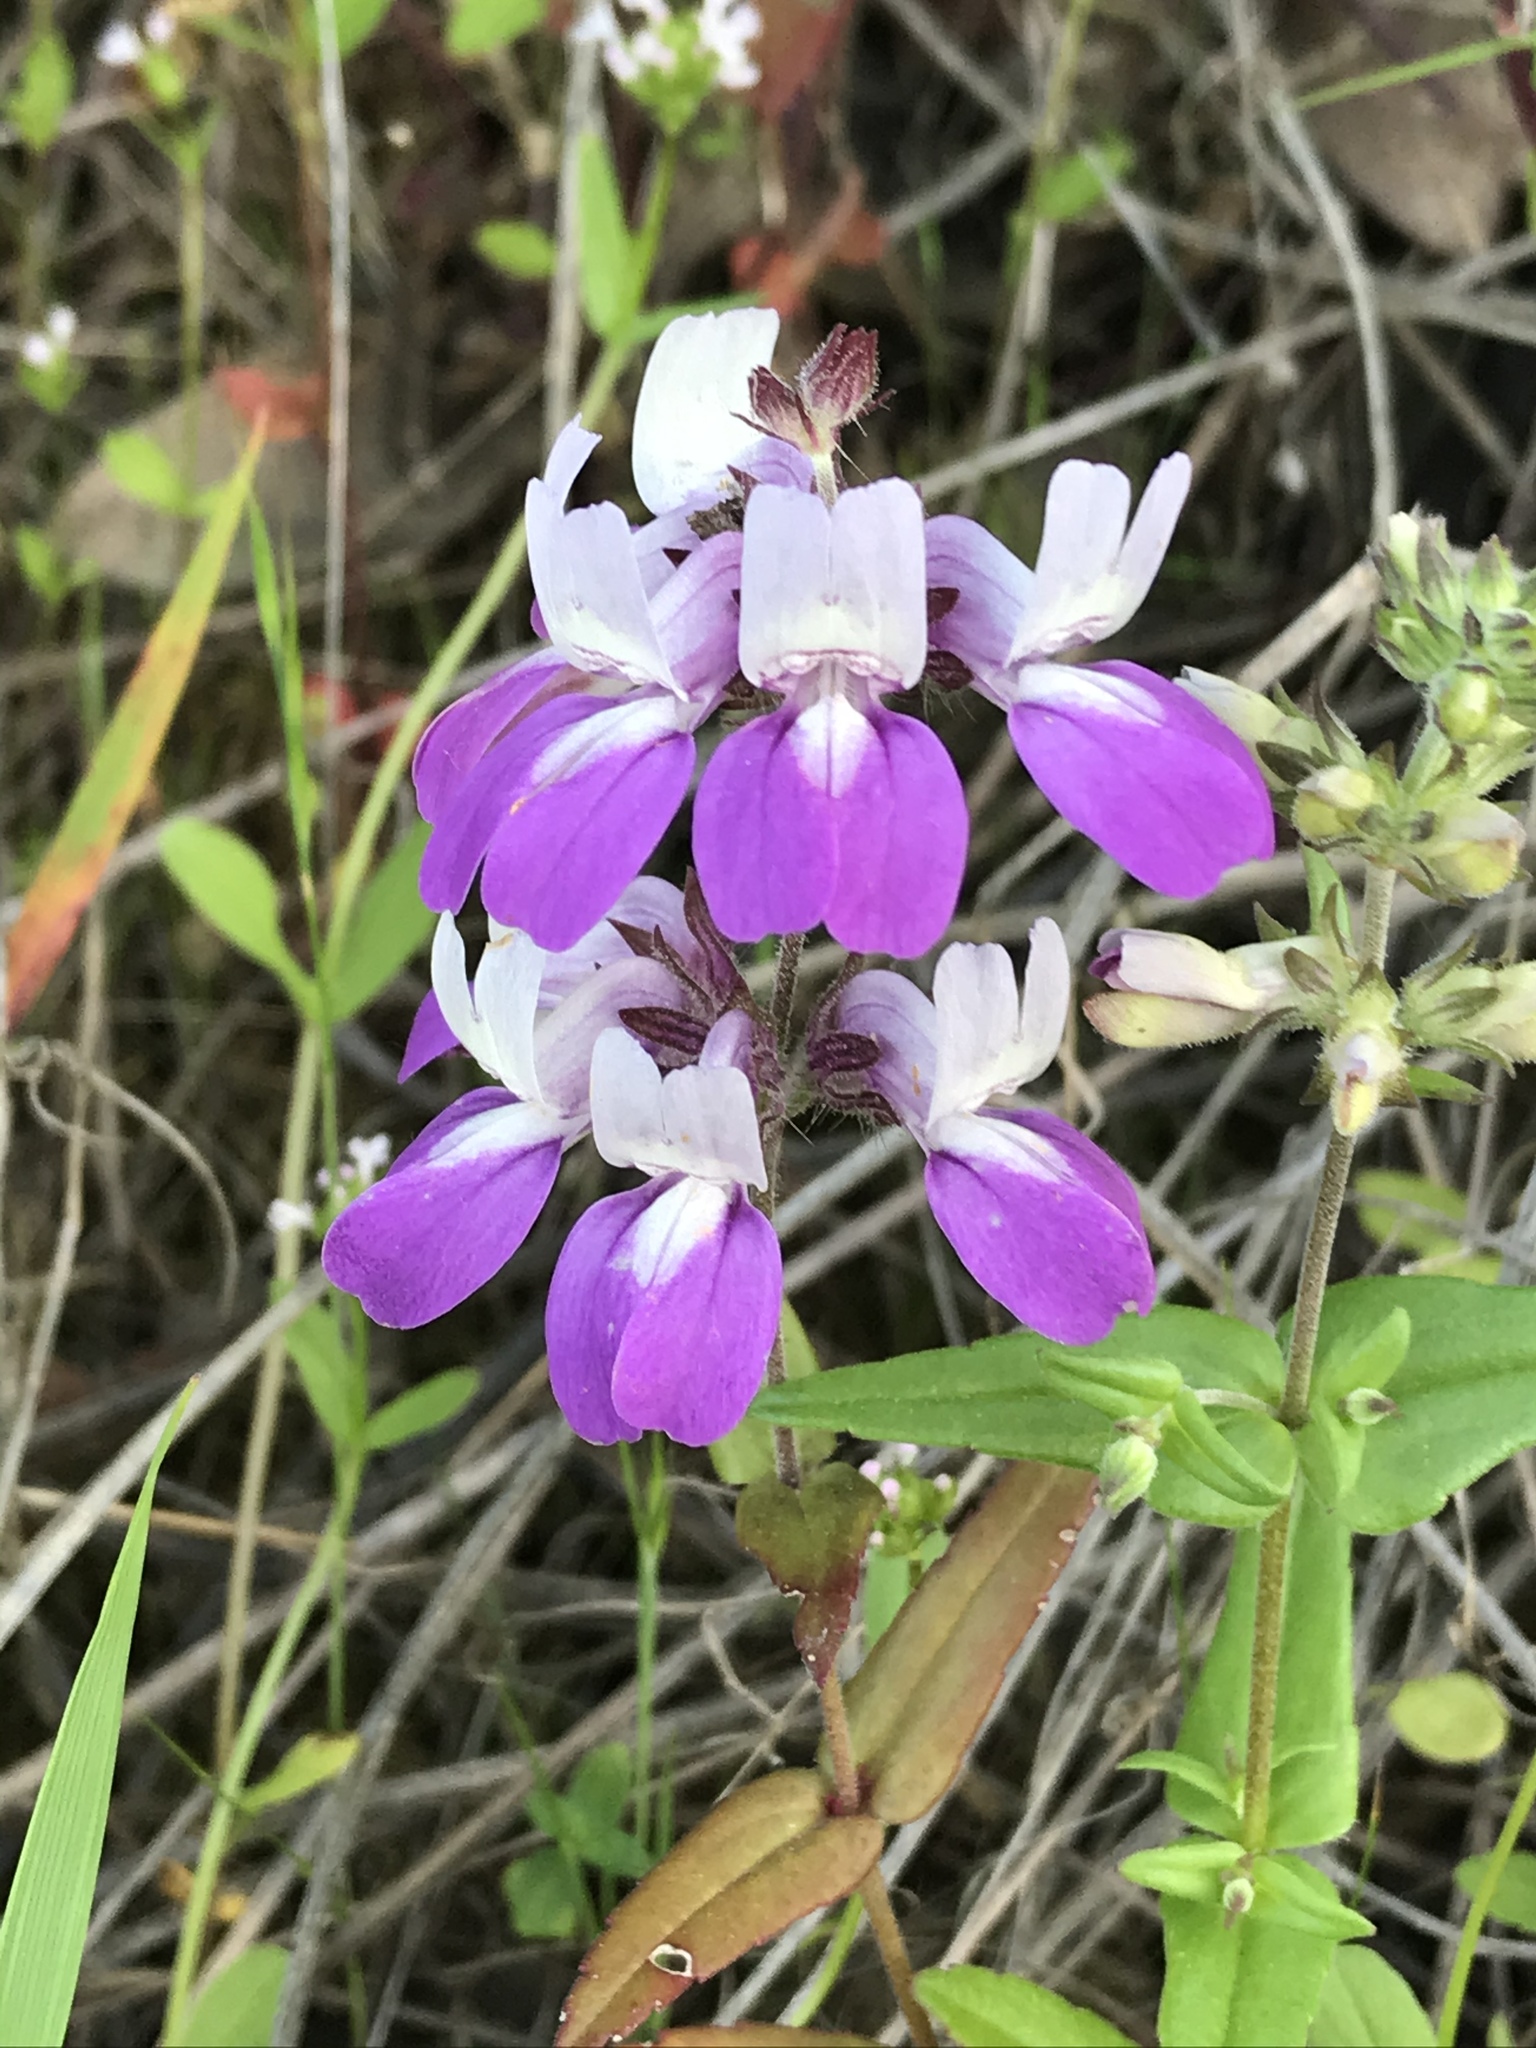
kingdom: Plantae
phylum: Tracheophyta
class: Magnoliopsida
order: Lamiales
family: Plantaginaceae
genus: Collinsia
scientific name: Collinsia heterophylla
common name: Chinese-houses
